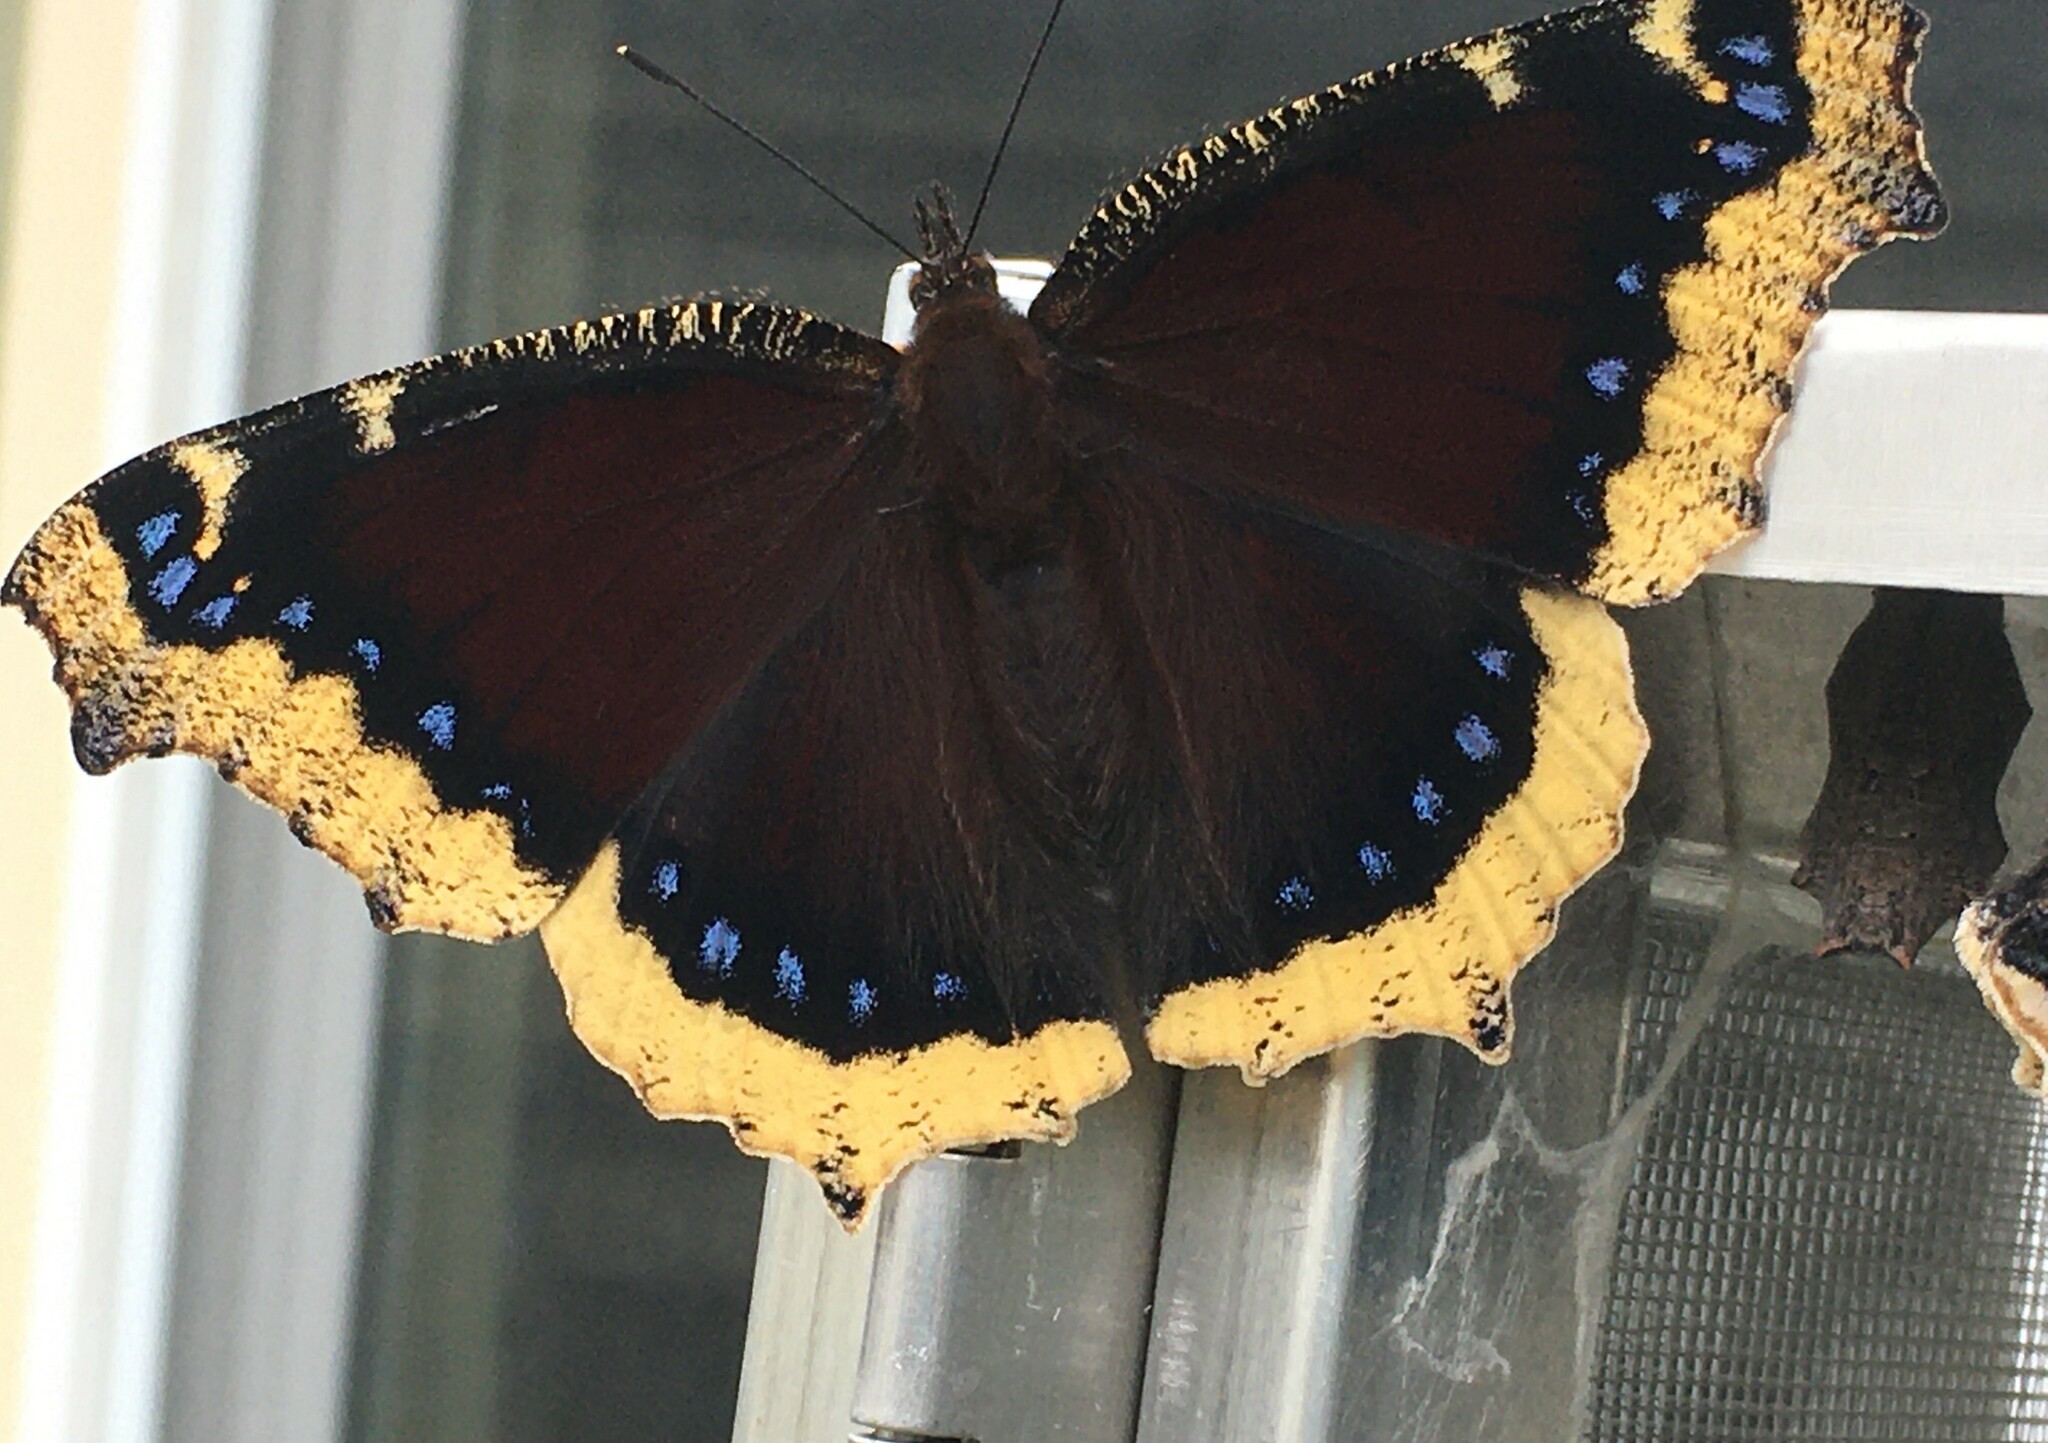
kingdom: Animalia
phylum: Arthropoda
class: Insecta
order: Lepidoptera
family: Nymphalidae
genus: Nymphalis
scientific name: Nymphalis antiopa
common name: Camberwell beauty
